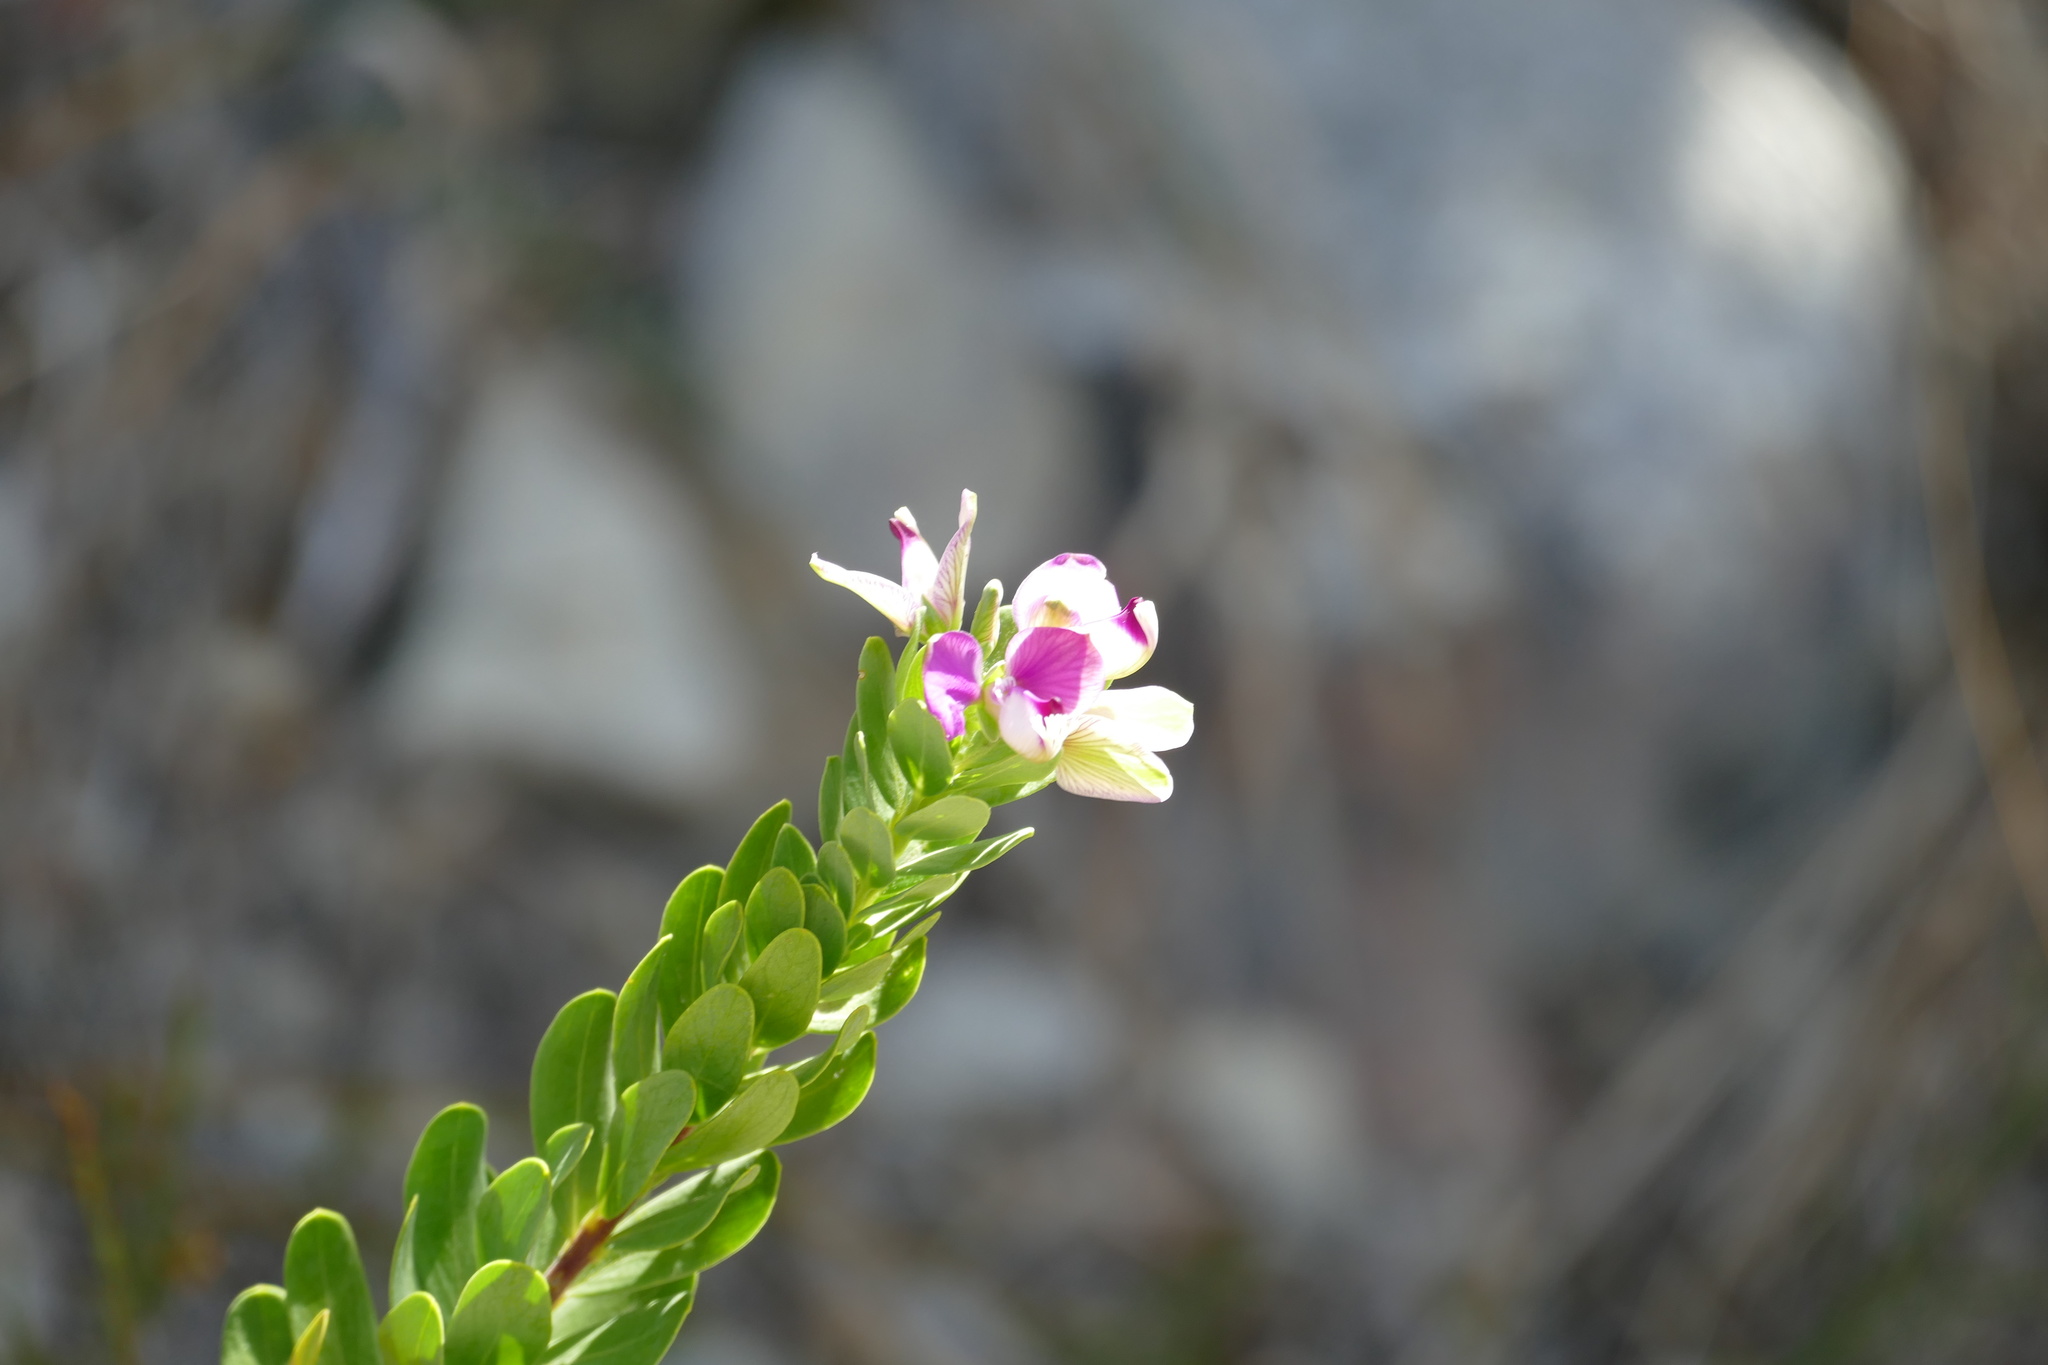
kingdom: Plantae
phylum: Tracheophyta
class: Magnoliopsida
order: Fabales
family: Polygalaceae
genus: Polygala
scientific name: Polygala myrtifolia
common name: Myrtle-leaf milkwort
